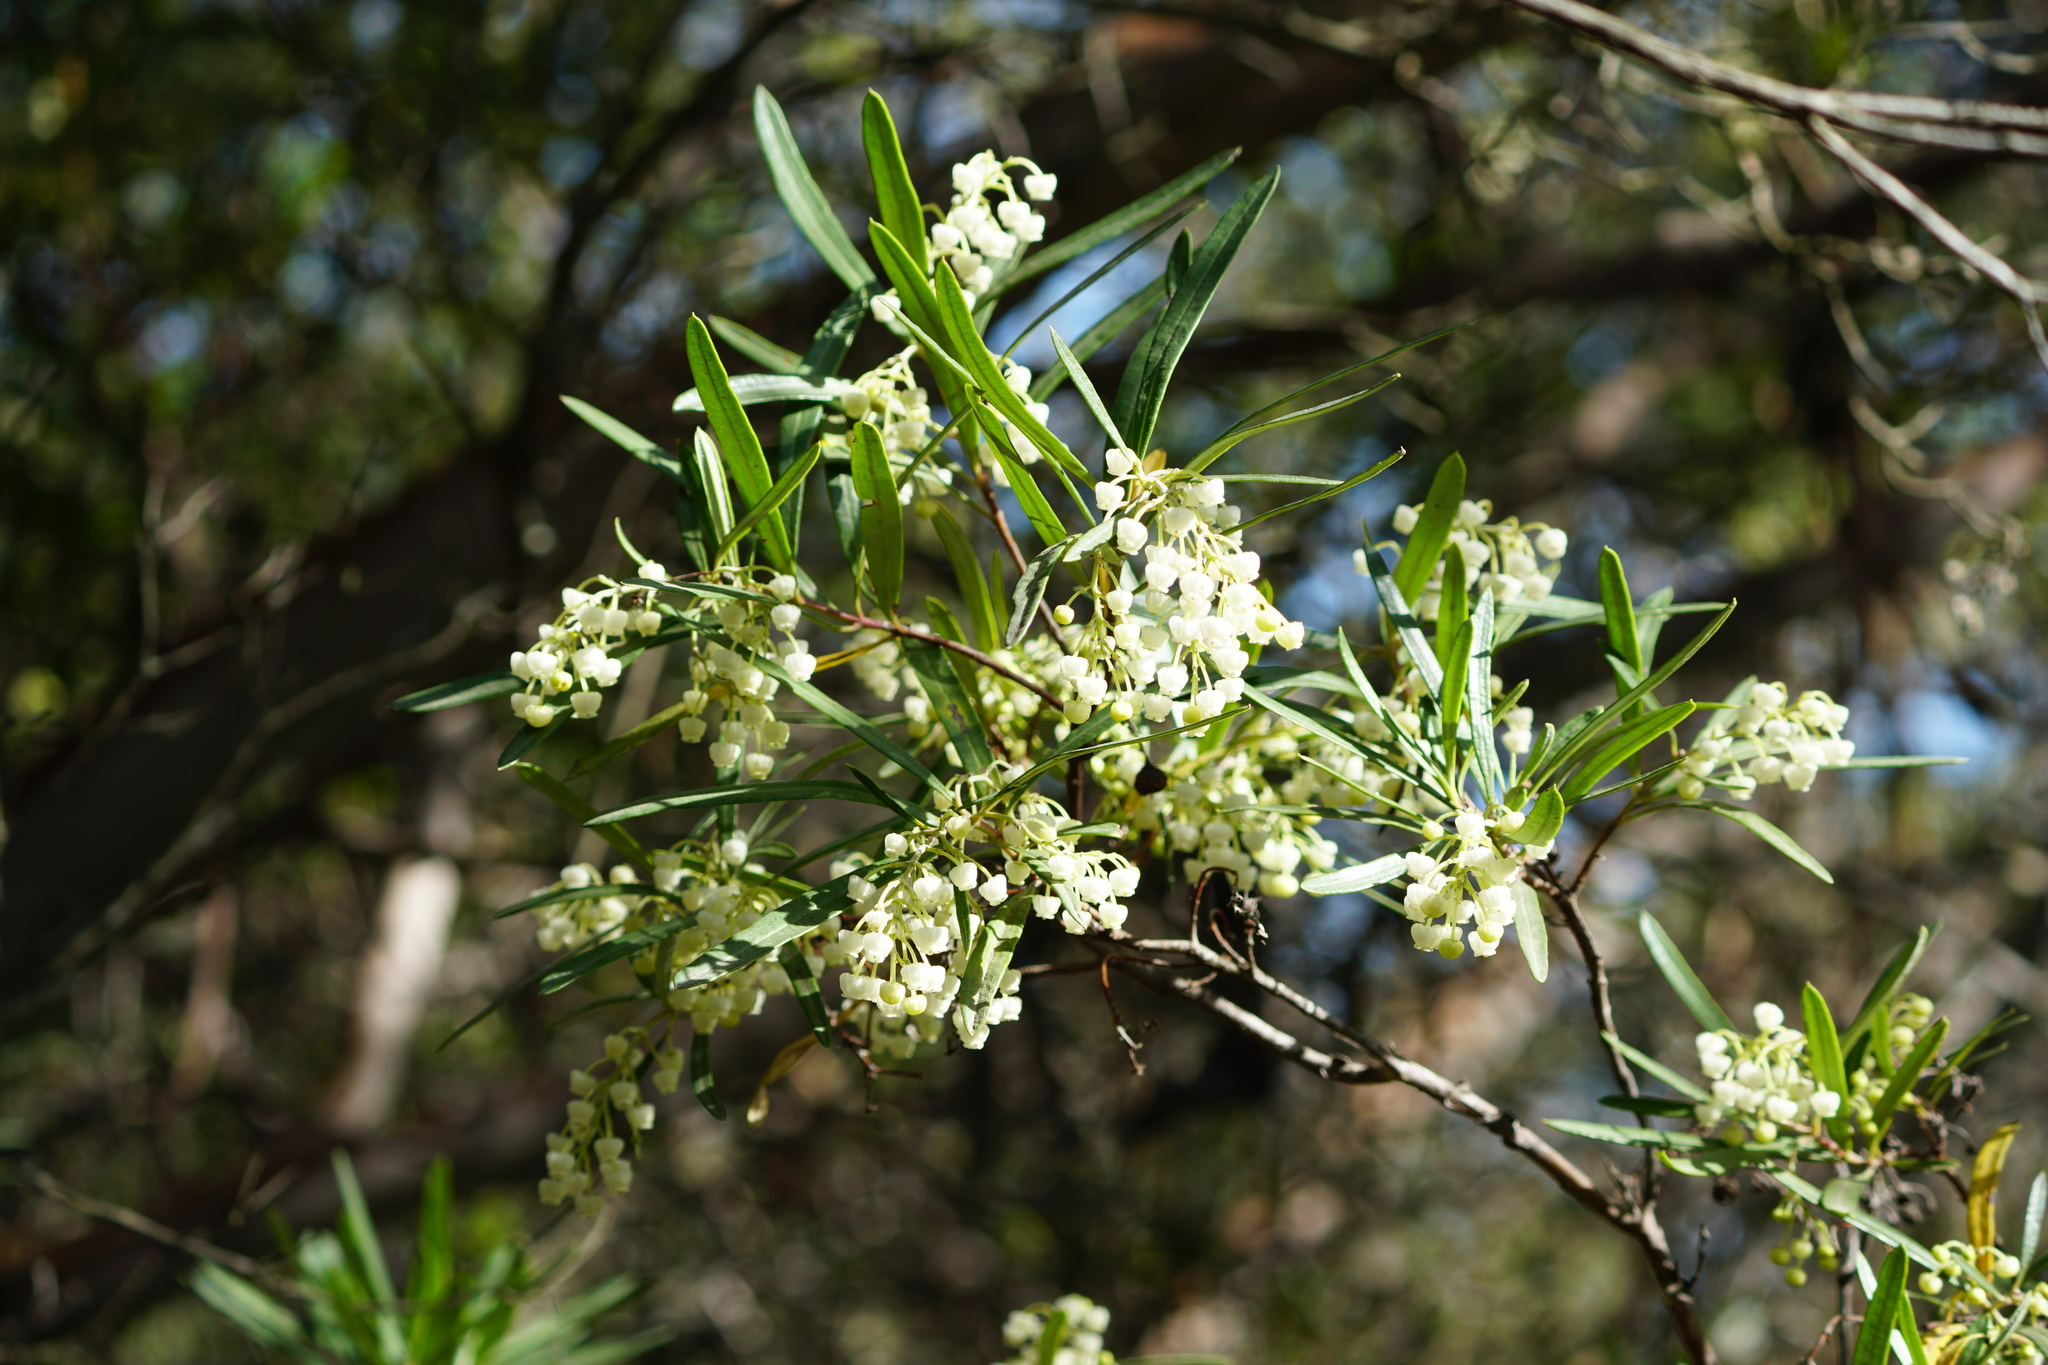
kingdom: Plantae
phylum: Tracheophyta
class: Magnoliopsida
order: Ericales
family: Ericaceae
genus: Ornithostaphylos
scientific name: Ornithostaphylos oppositifolia
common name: Baja california birdbush
